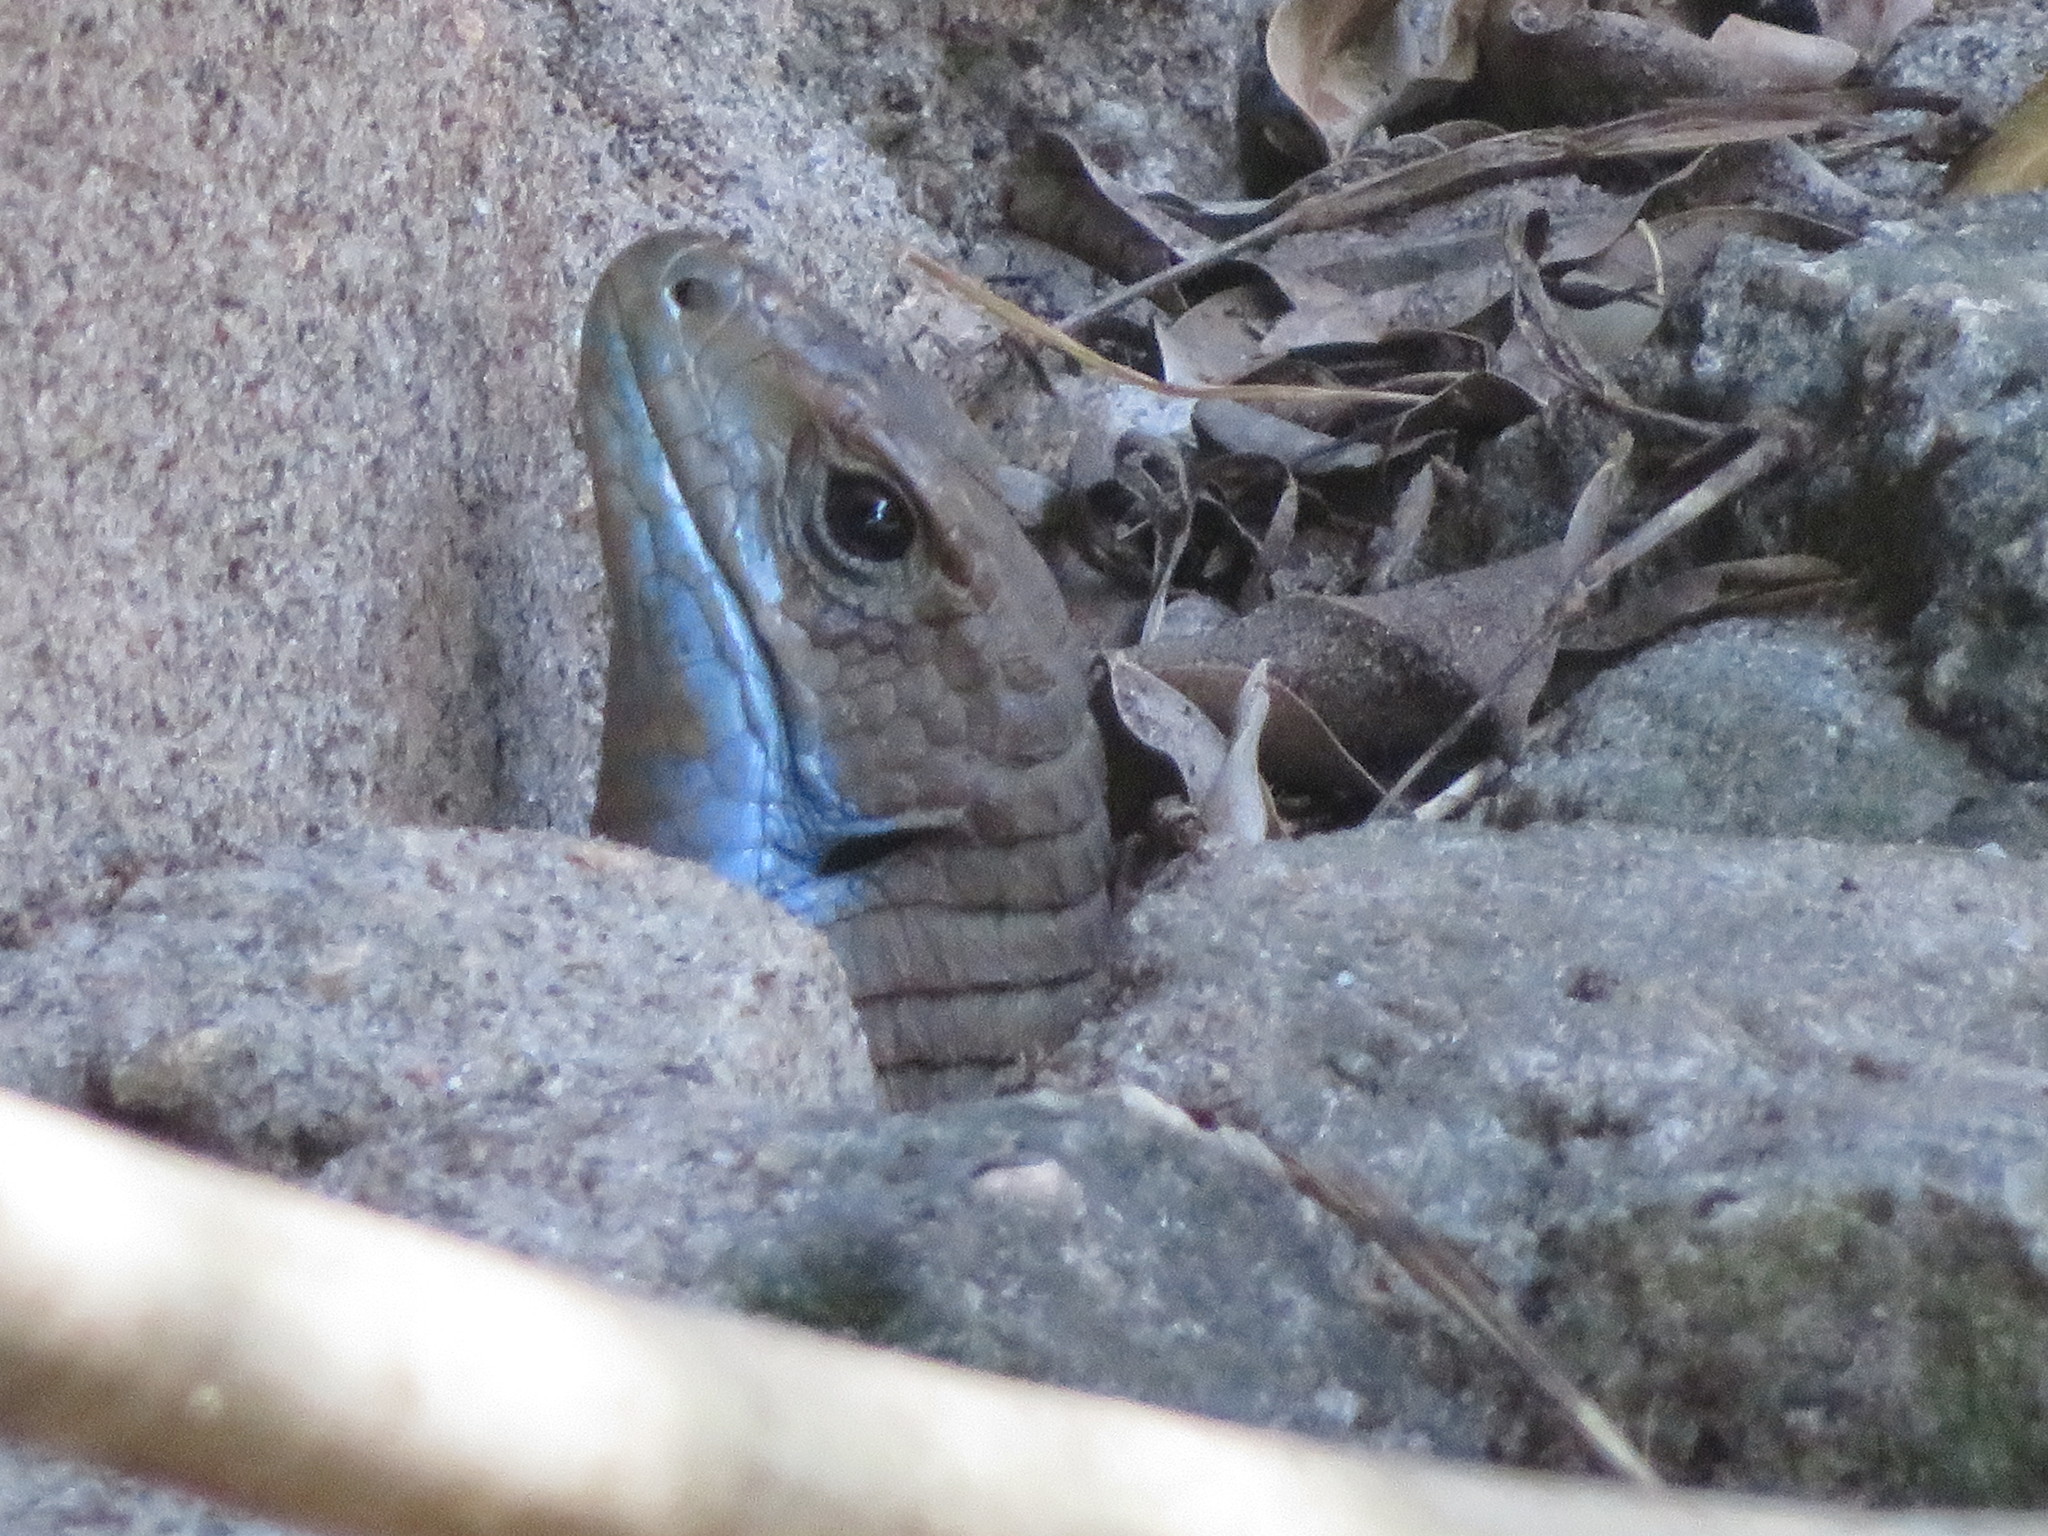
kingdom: Animalia
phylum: Chordata
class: Squamata
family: Gerrhosauridae
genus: Broadleysaurus
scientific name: Broadleysaurus major
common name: Rough-scaled plated lizard
